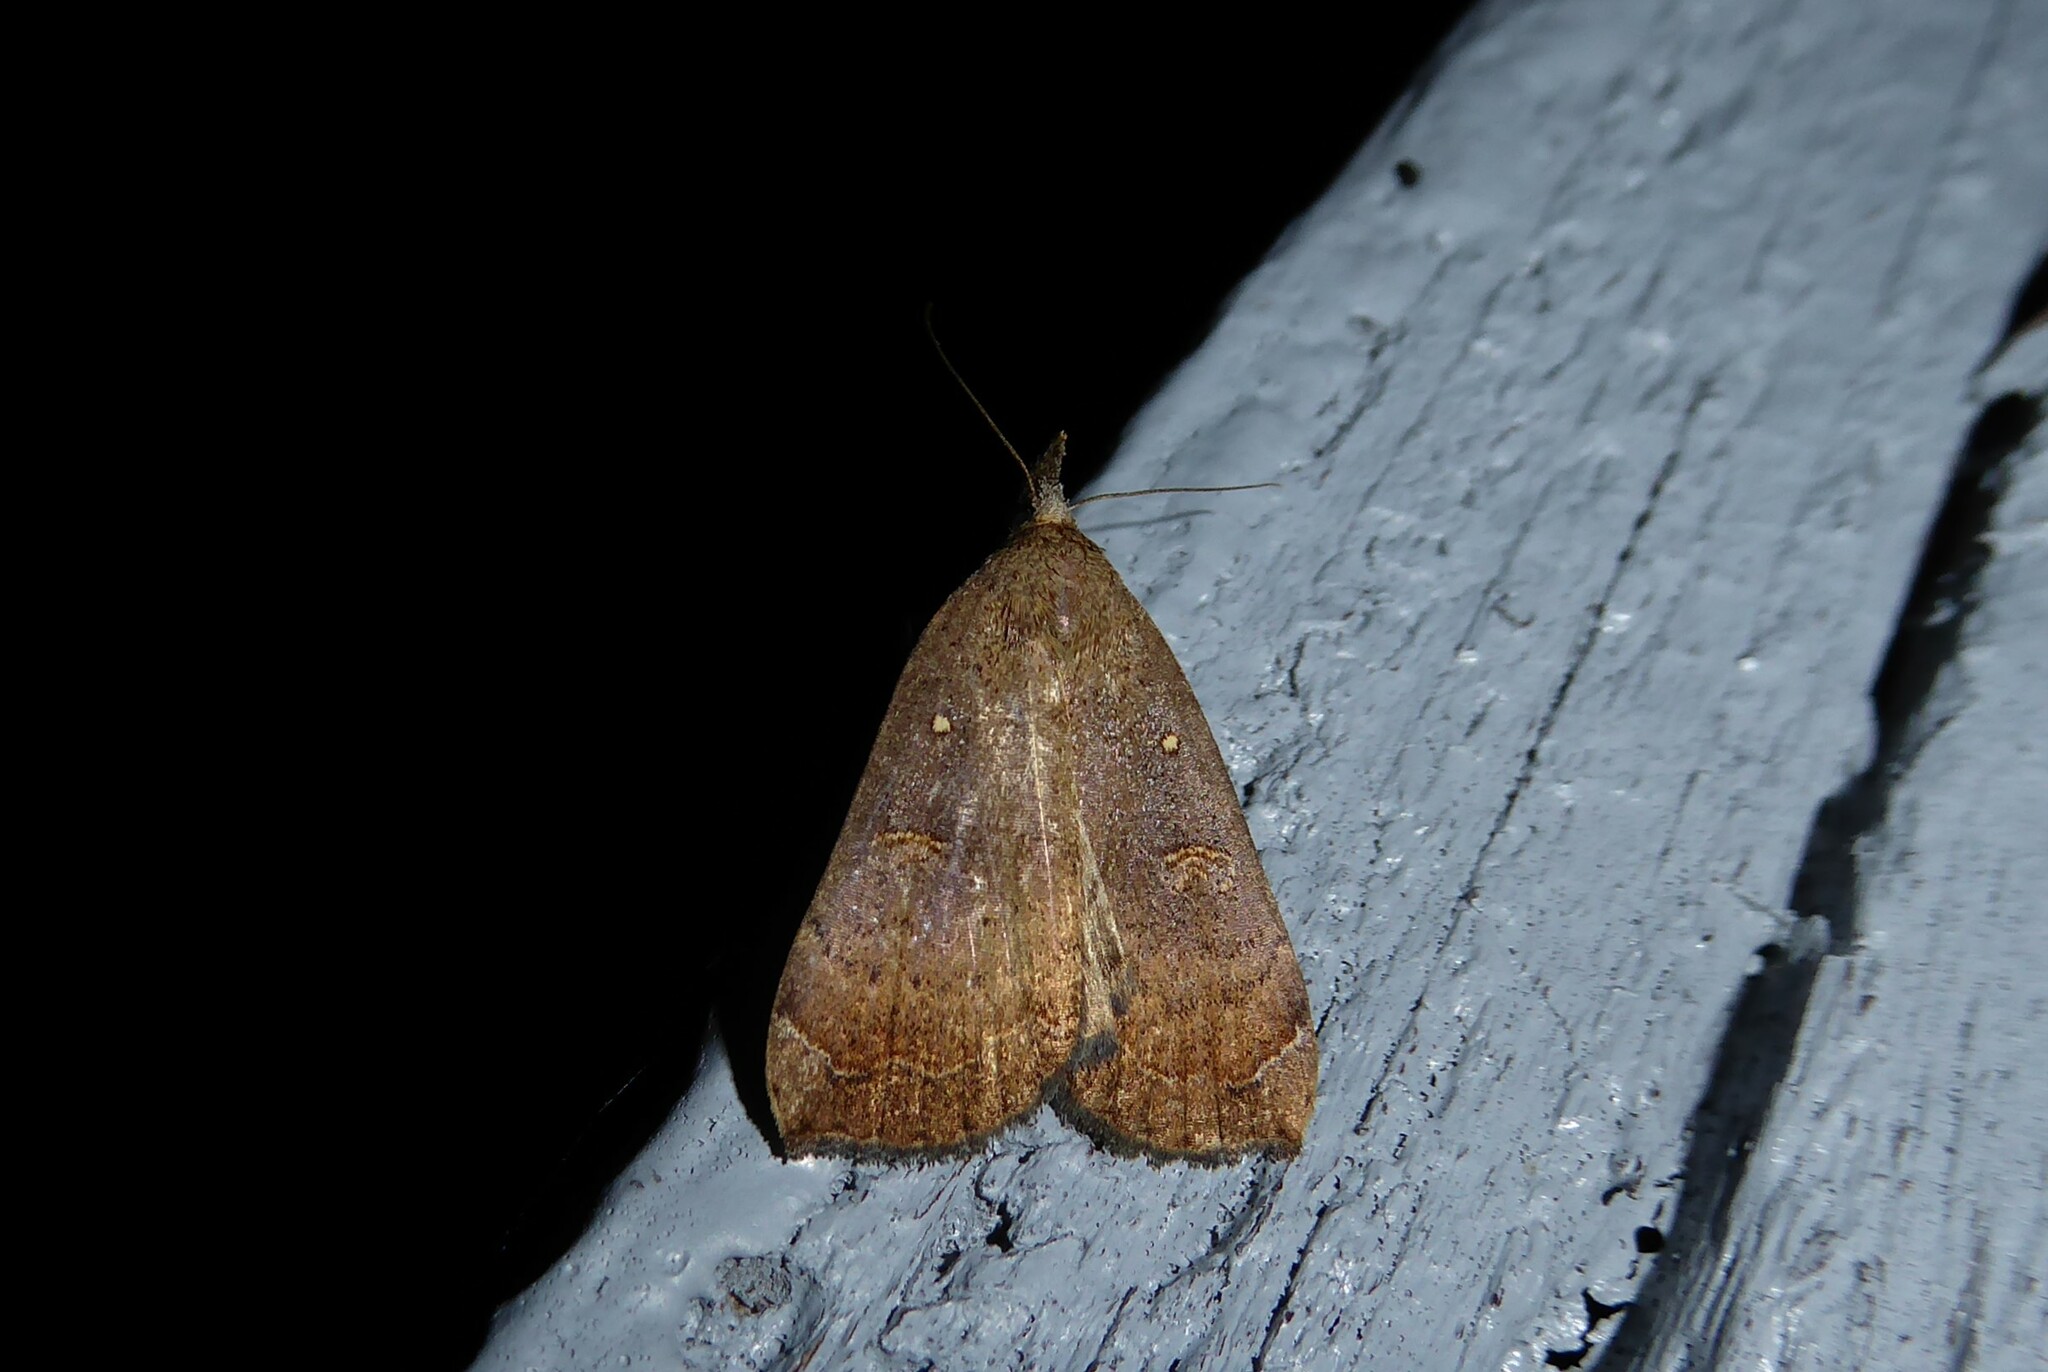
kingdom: Animalia
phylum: Arthropoda
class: Insecta
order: Lepidoptera
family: Erebidae
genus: Rhapsa
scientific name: Rhapsa scotosialis
